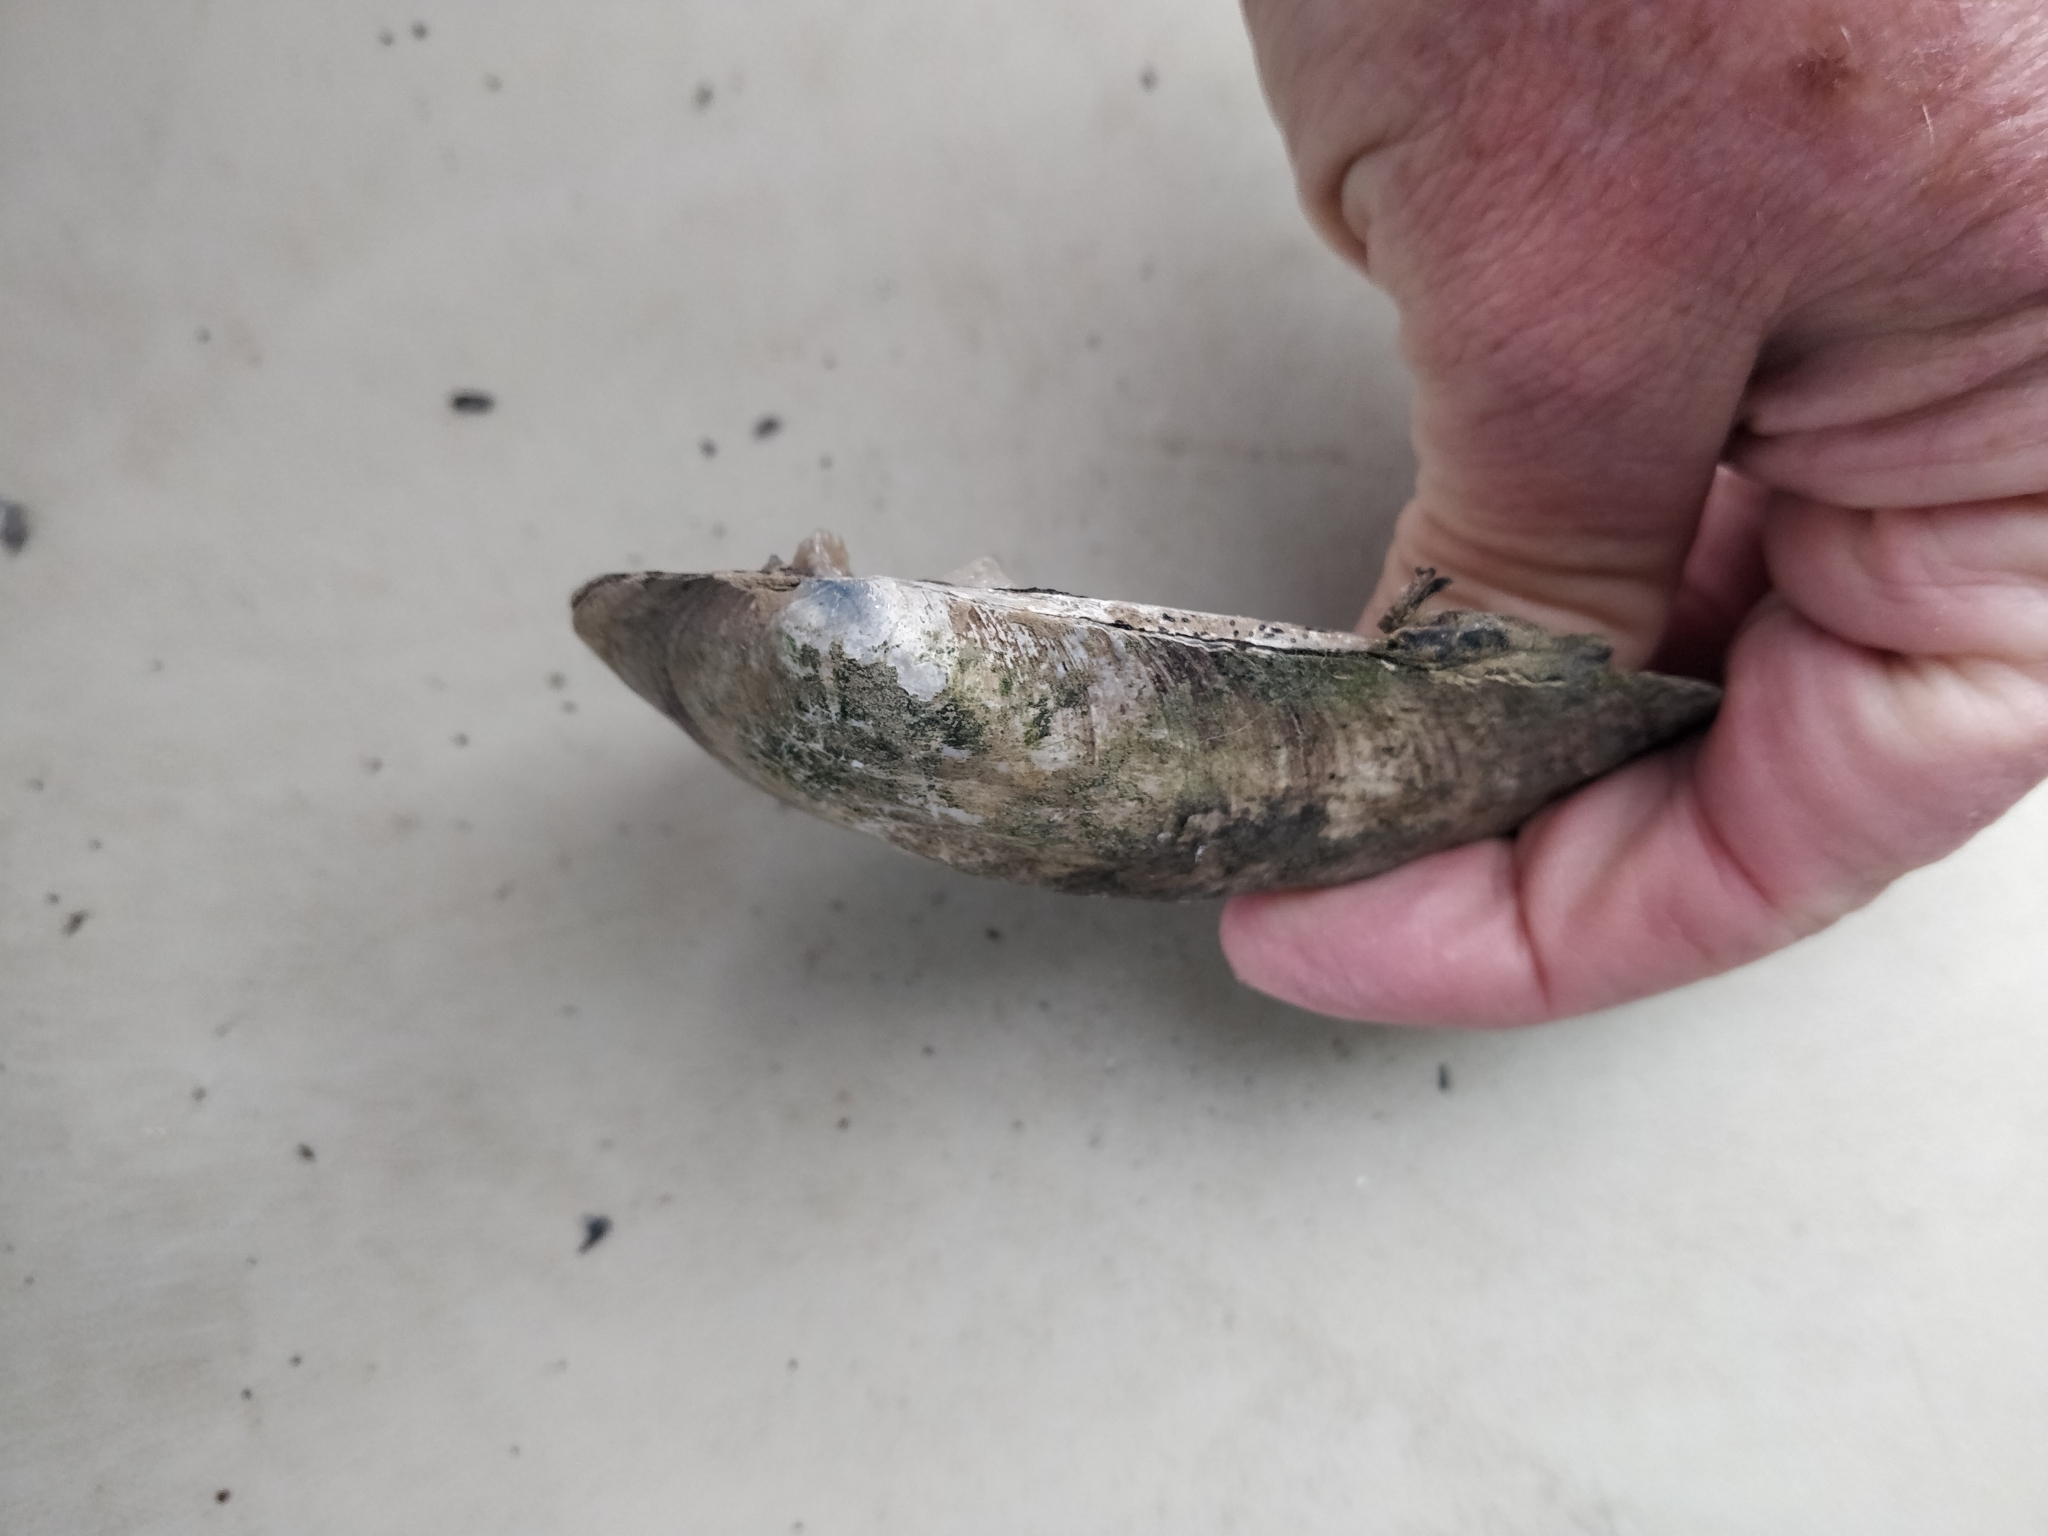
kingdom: Animalia
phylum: Mollusca
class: Bivalvia
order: Unionida
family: Unionidae
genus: Amblema
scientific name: Amblema plicata
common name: Threeridge
